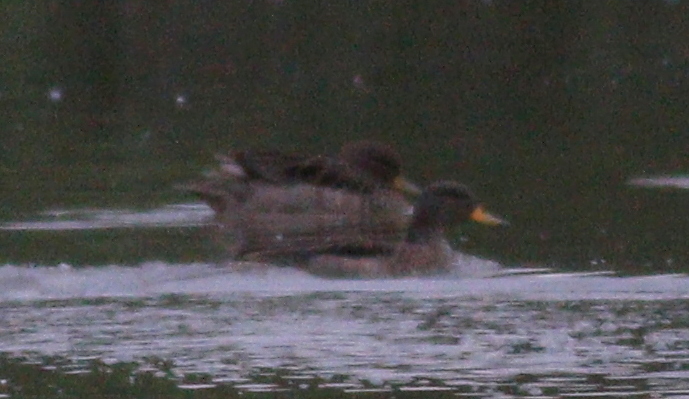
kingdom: Animalia
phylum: Chordata
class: Aves
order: Anseriformes
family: Anatidae
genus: Anas
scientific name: Anas flavirostris
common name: Yellow-billed teal
